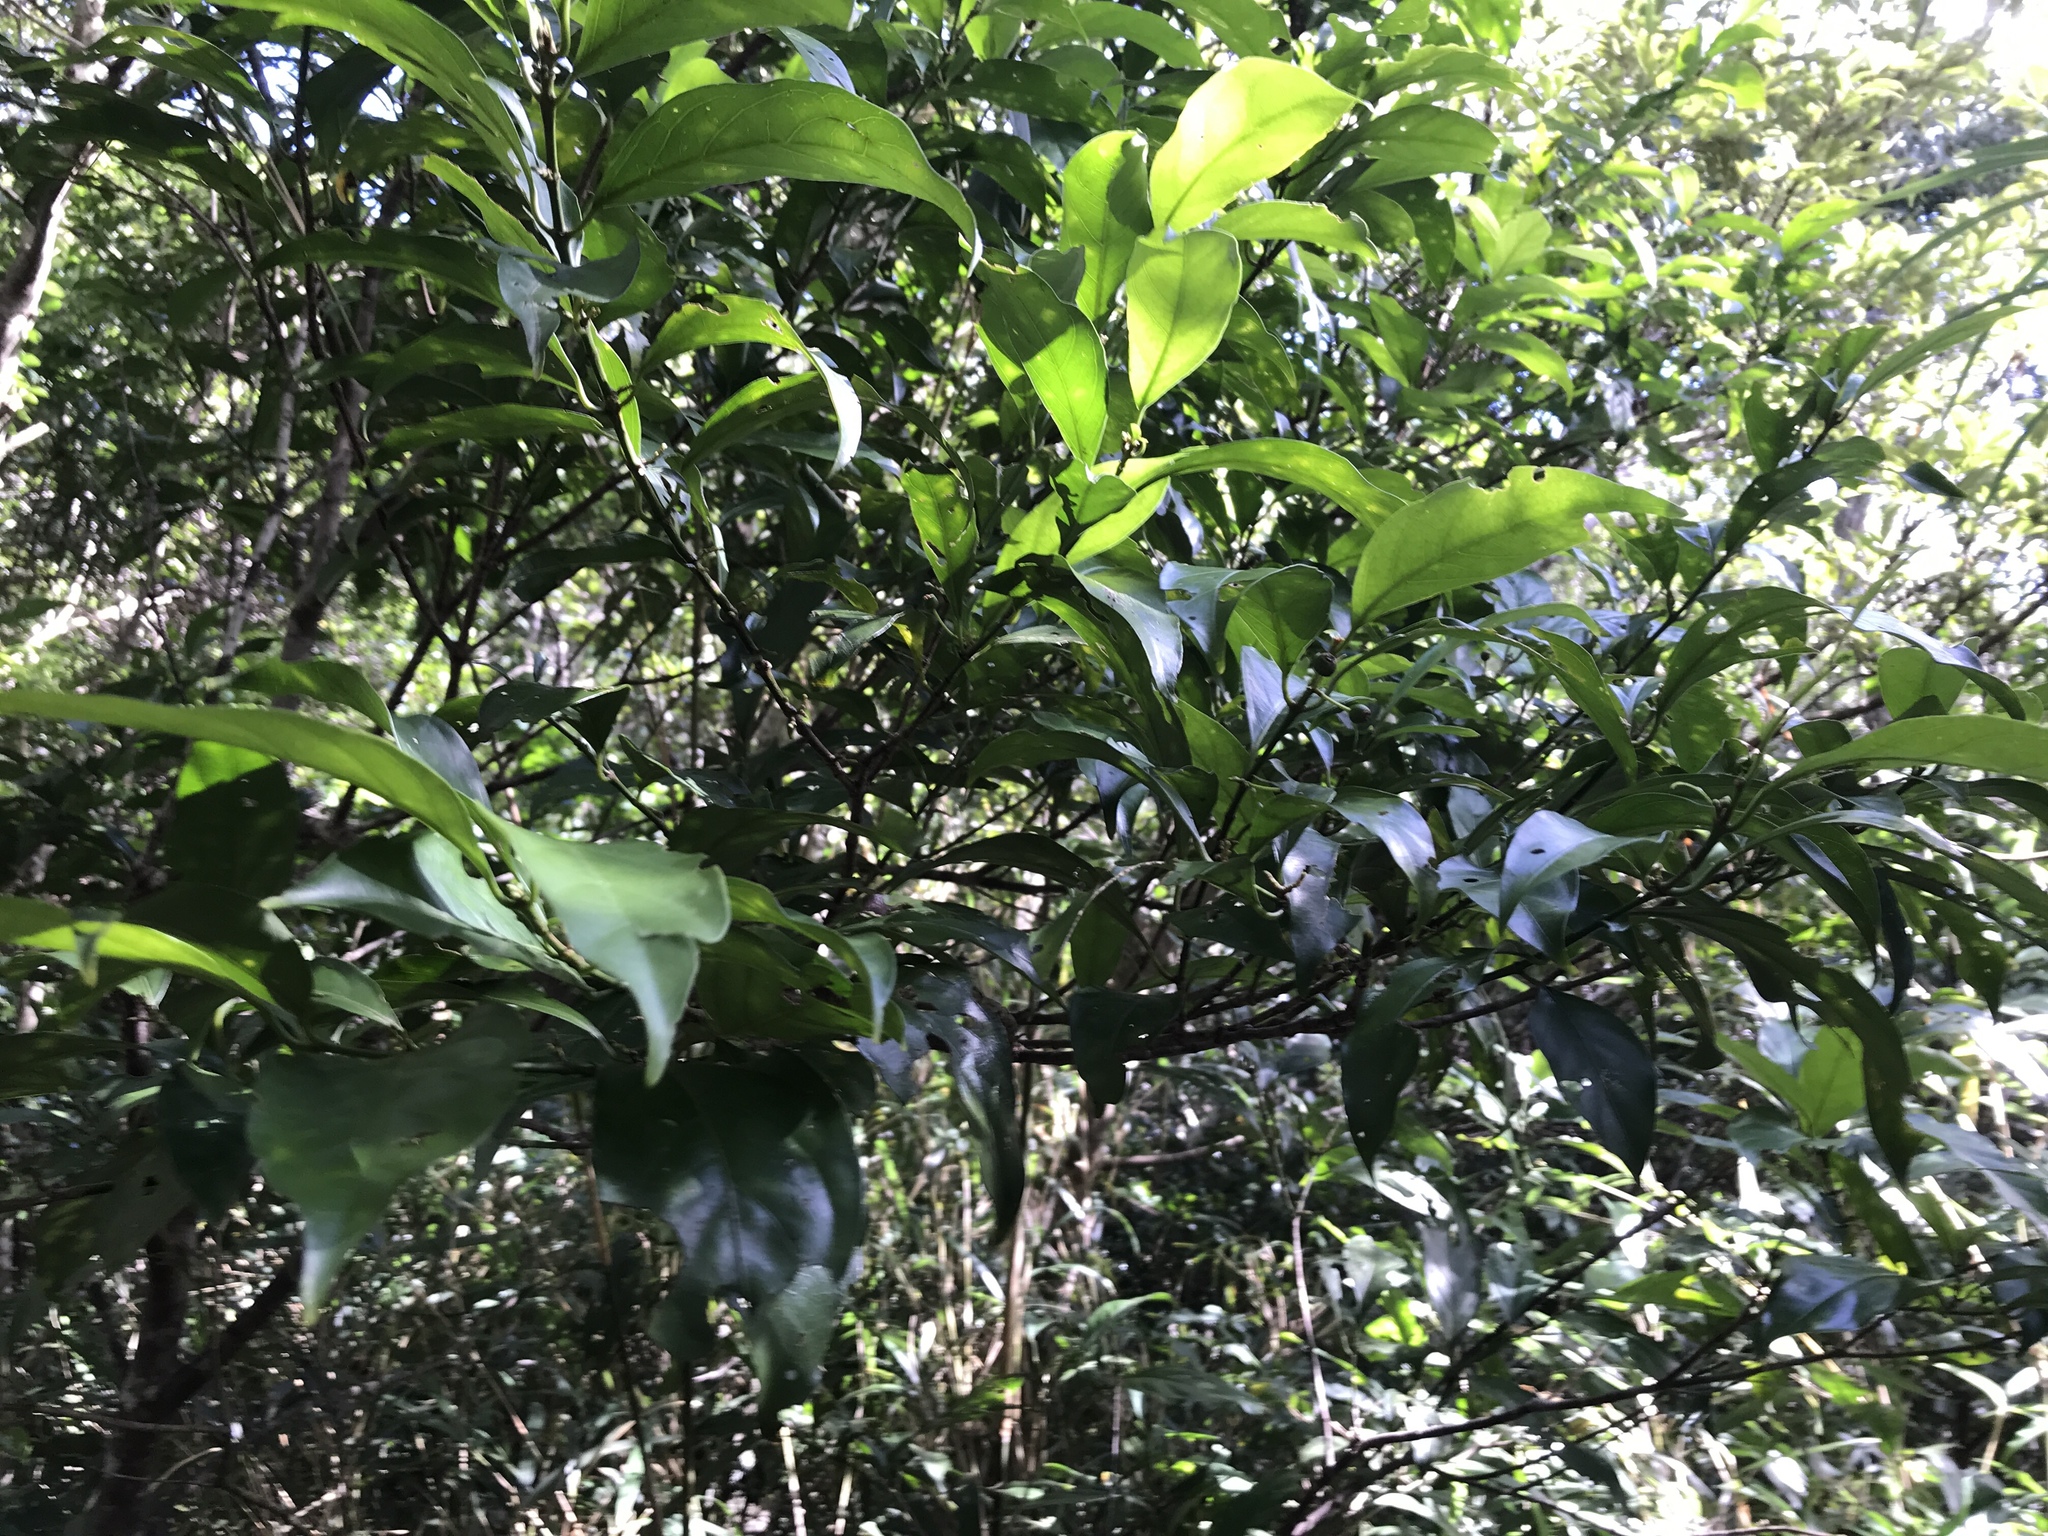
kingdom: Plantae
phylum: Tracheophyta
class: Magnoliopsida
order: Gentianales
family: Rubiaceae
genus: Aidia
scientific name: Aidia canthioides
